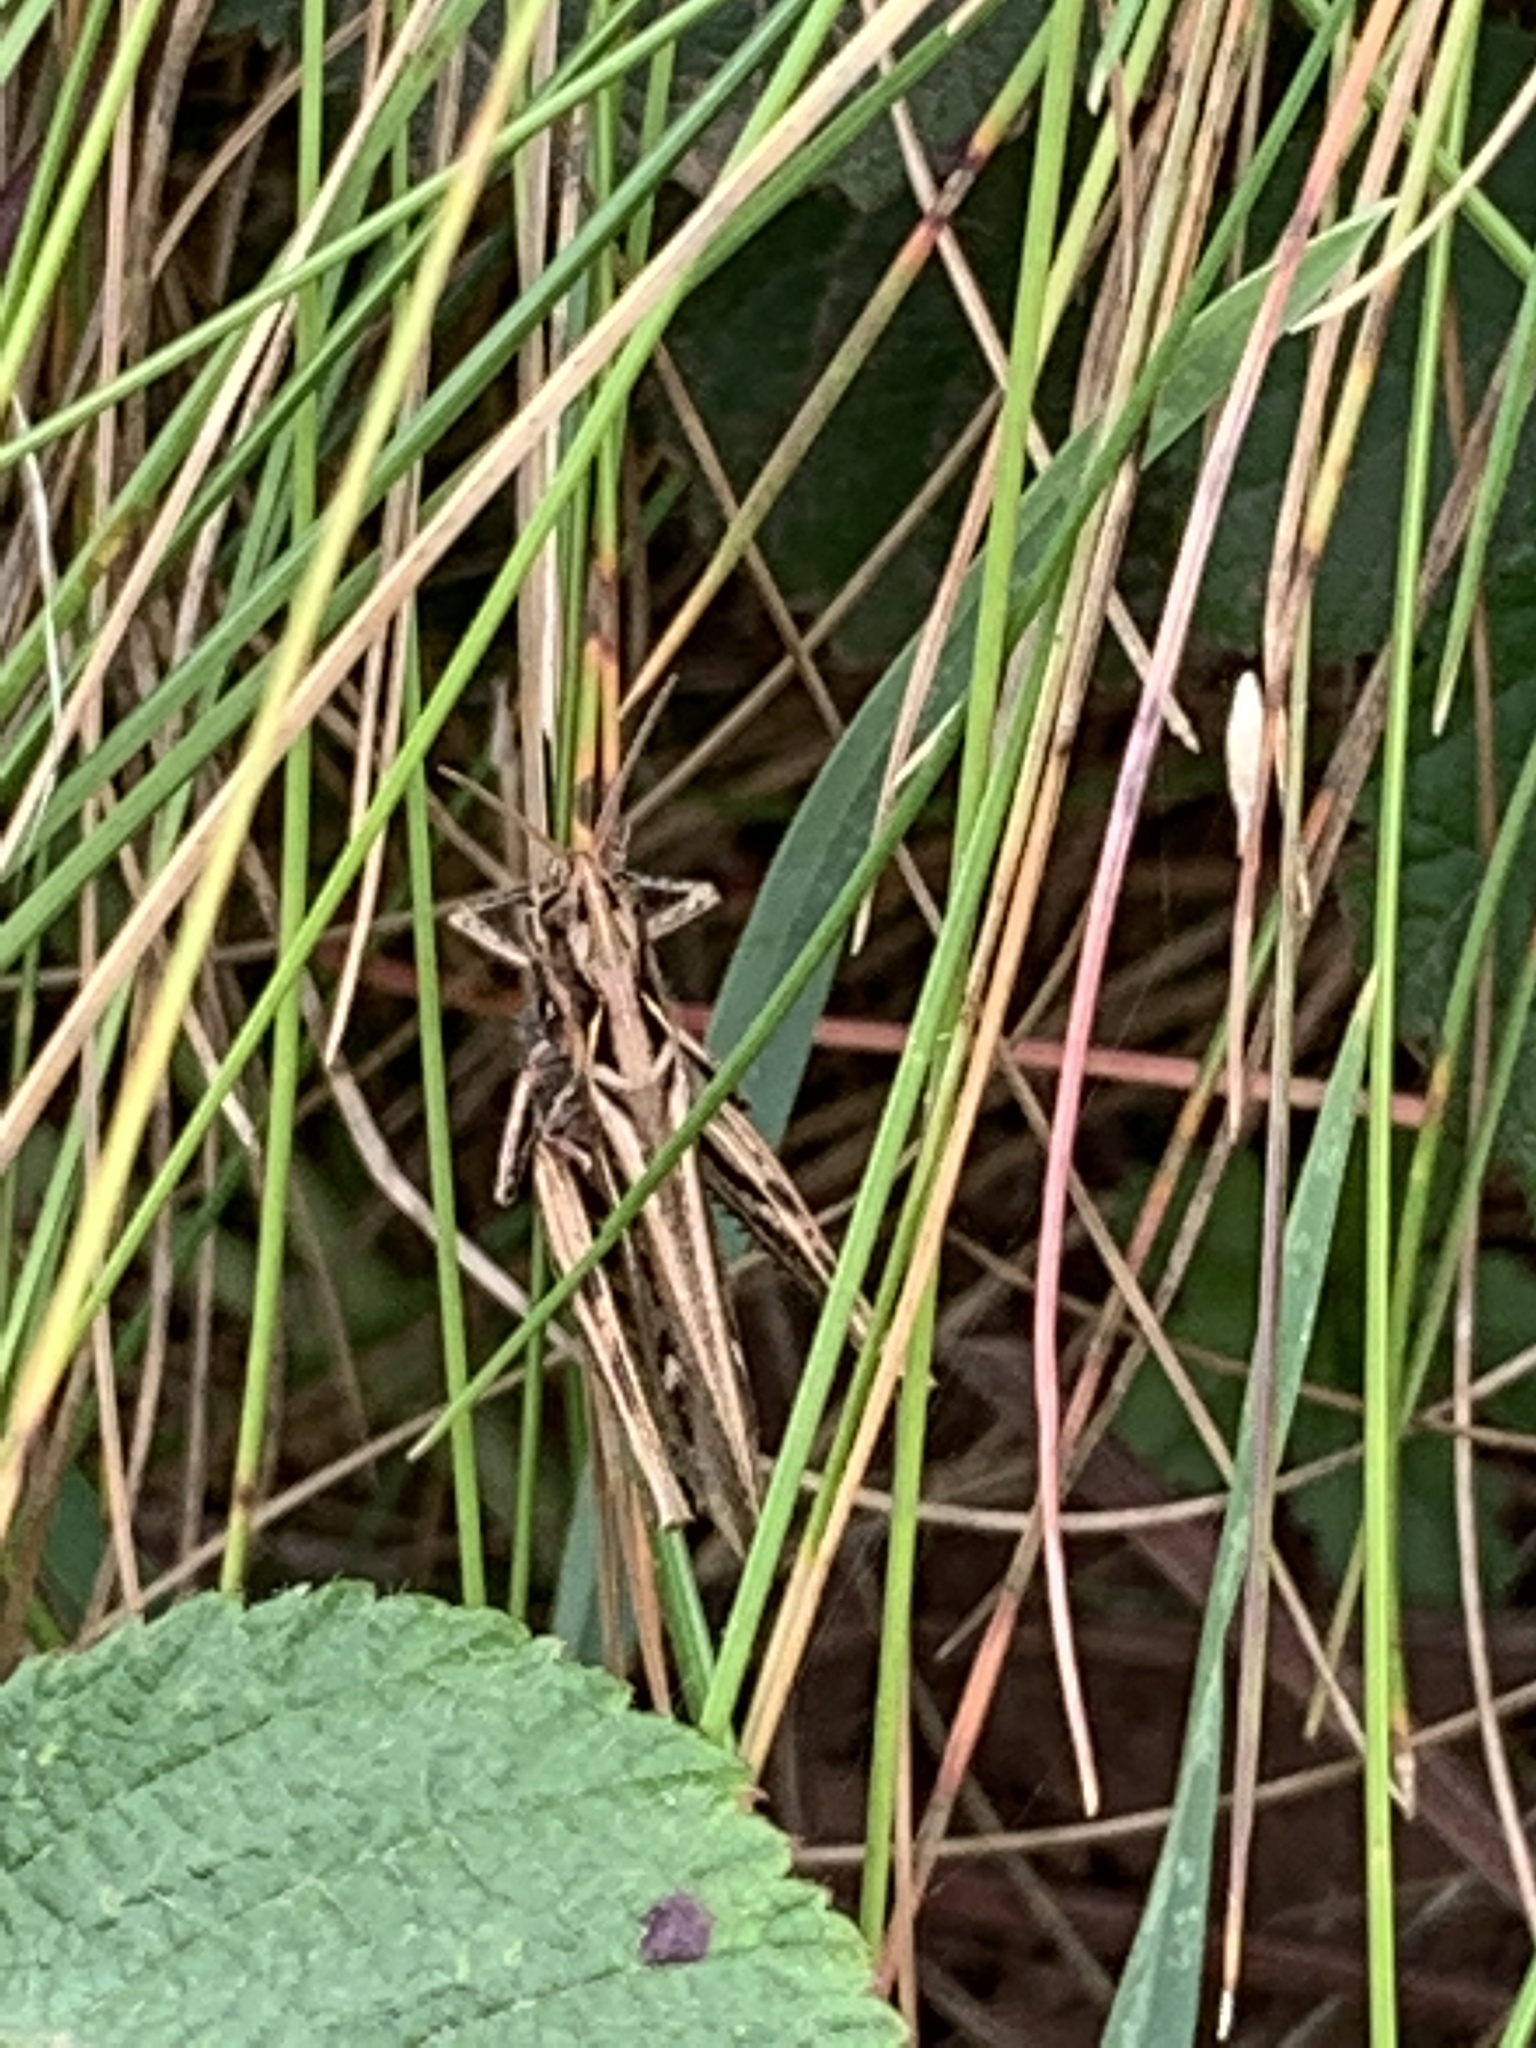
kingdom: Animalia
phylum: Arthropoda
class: Insecta
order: Orthoptera
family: Acrididae
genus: Chorthippus
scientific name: Chorthippus brunneus
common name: Field grasshopper
